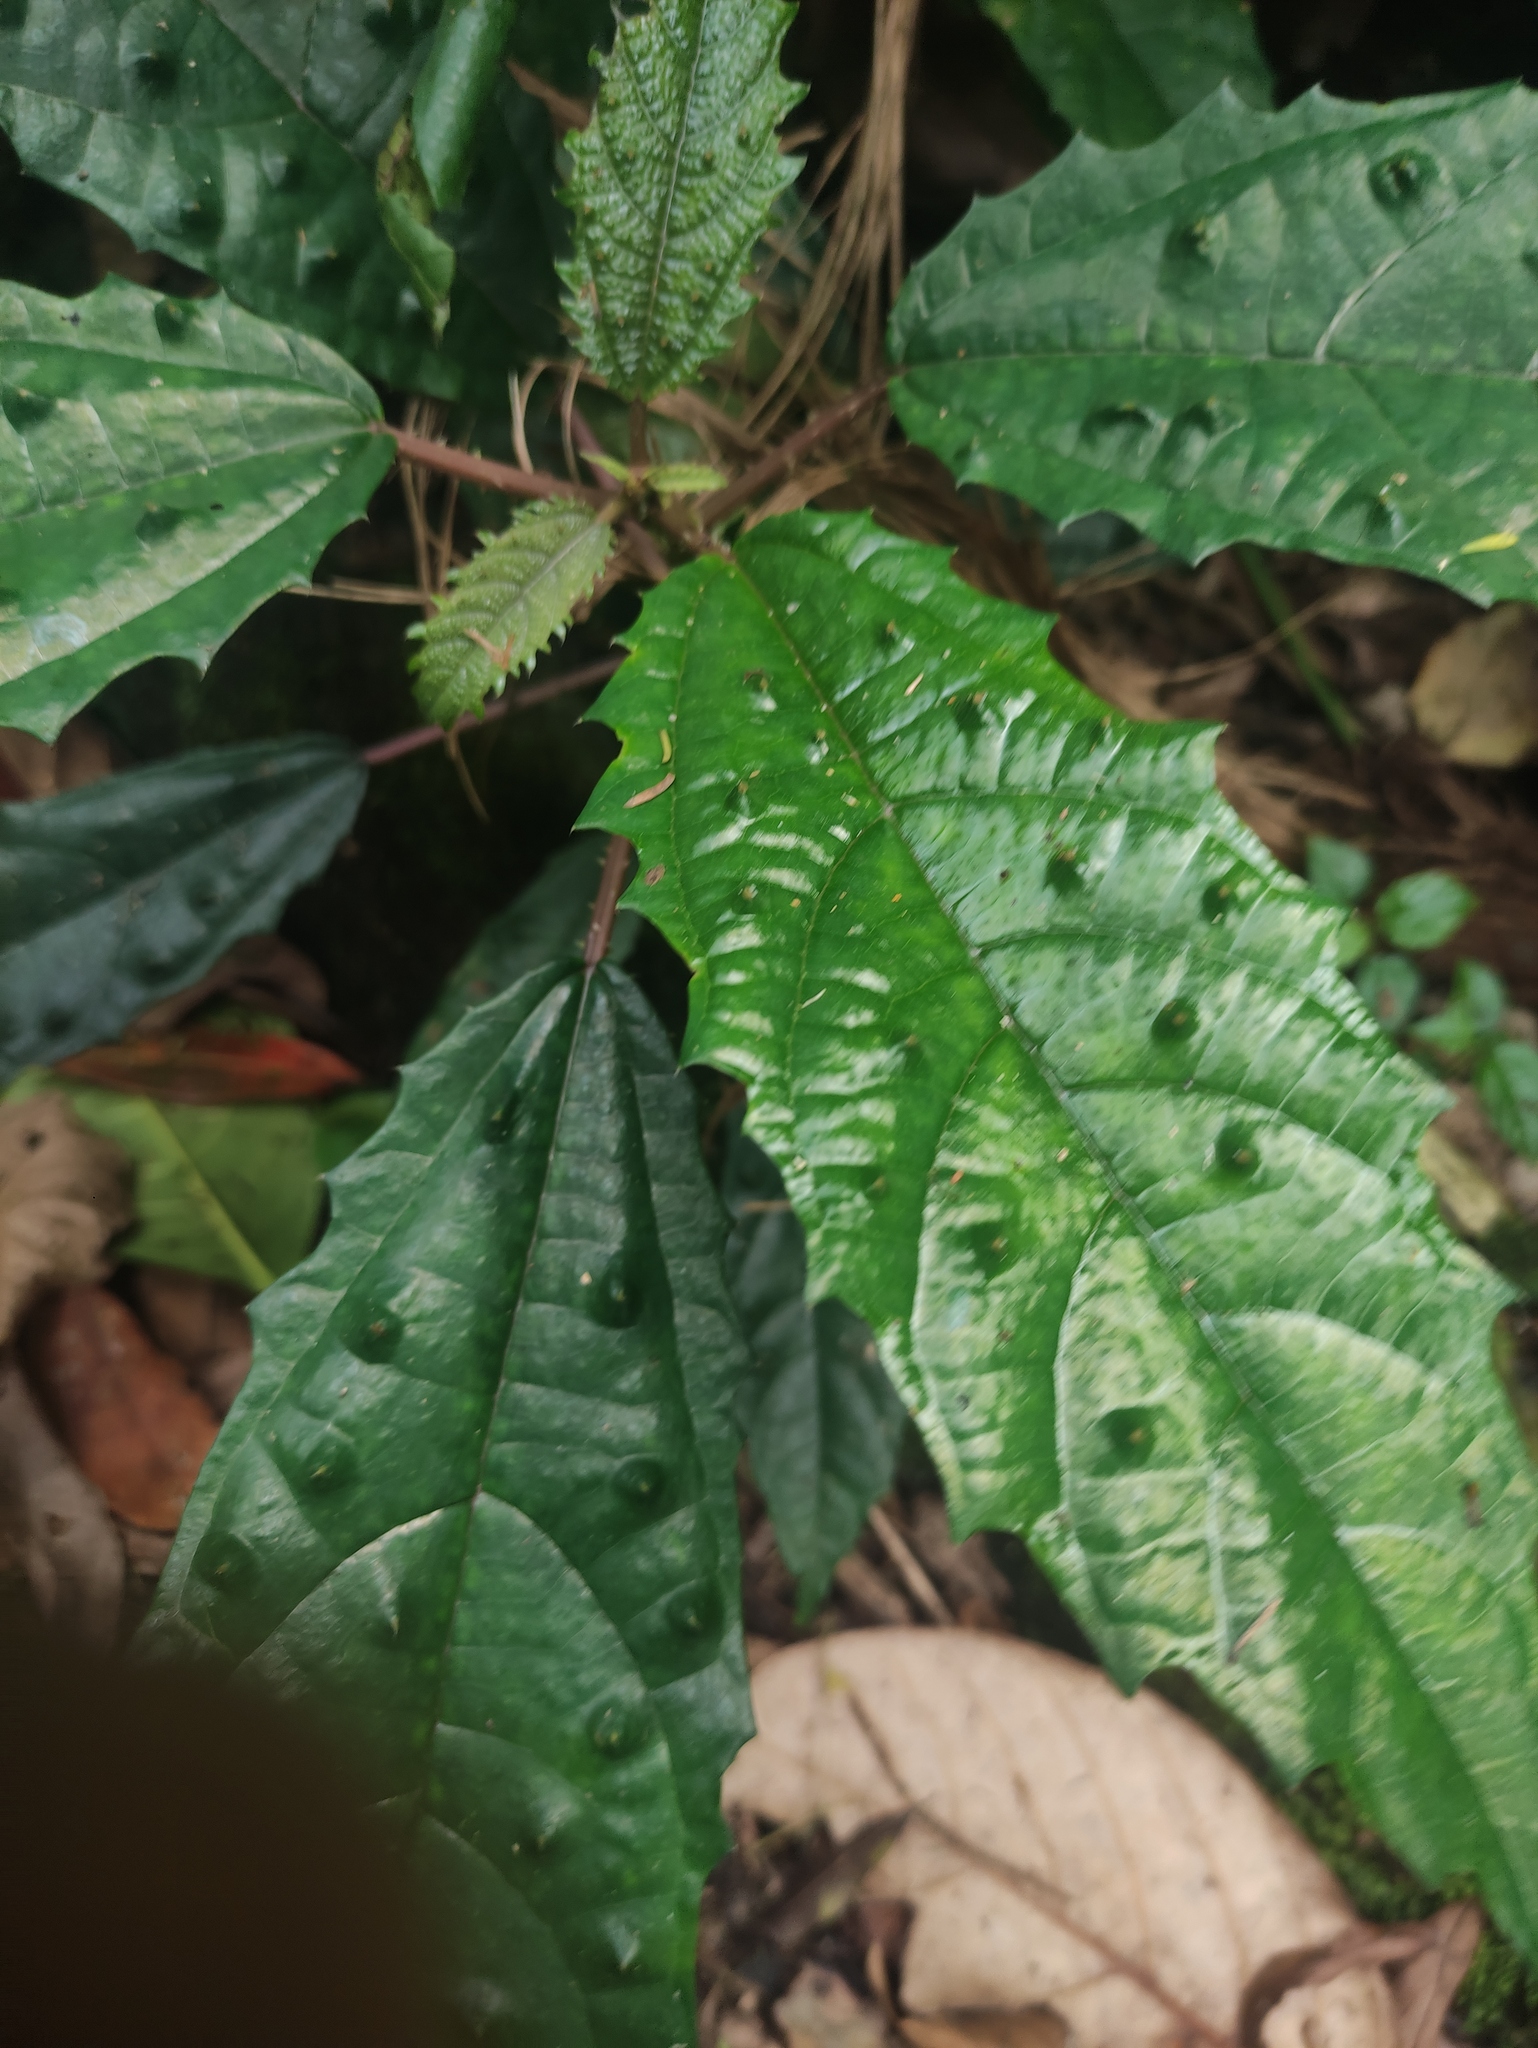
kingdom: Plantae
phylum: Tracheophyta
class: Magnoliopsida
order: Rosales
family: Urticaceae
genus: Urera
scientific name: Urera nitida
